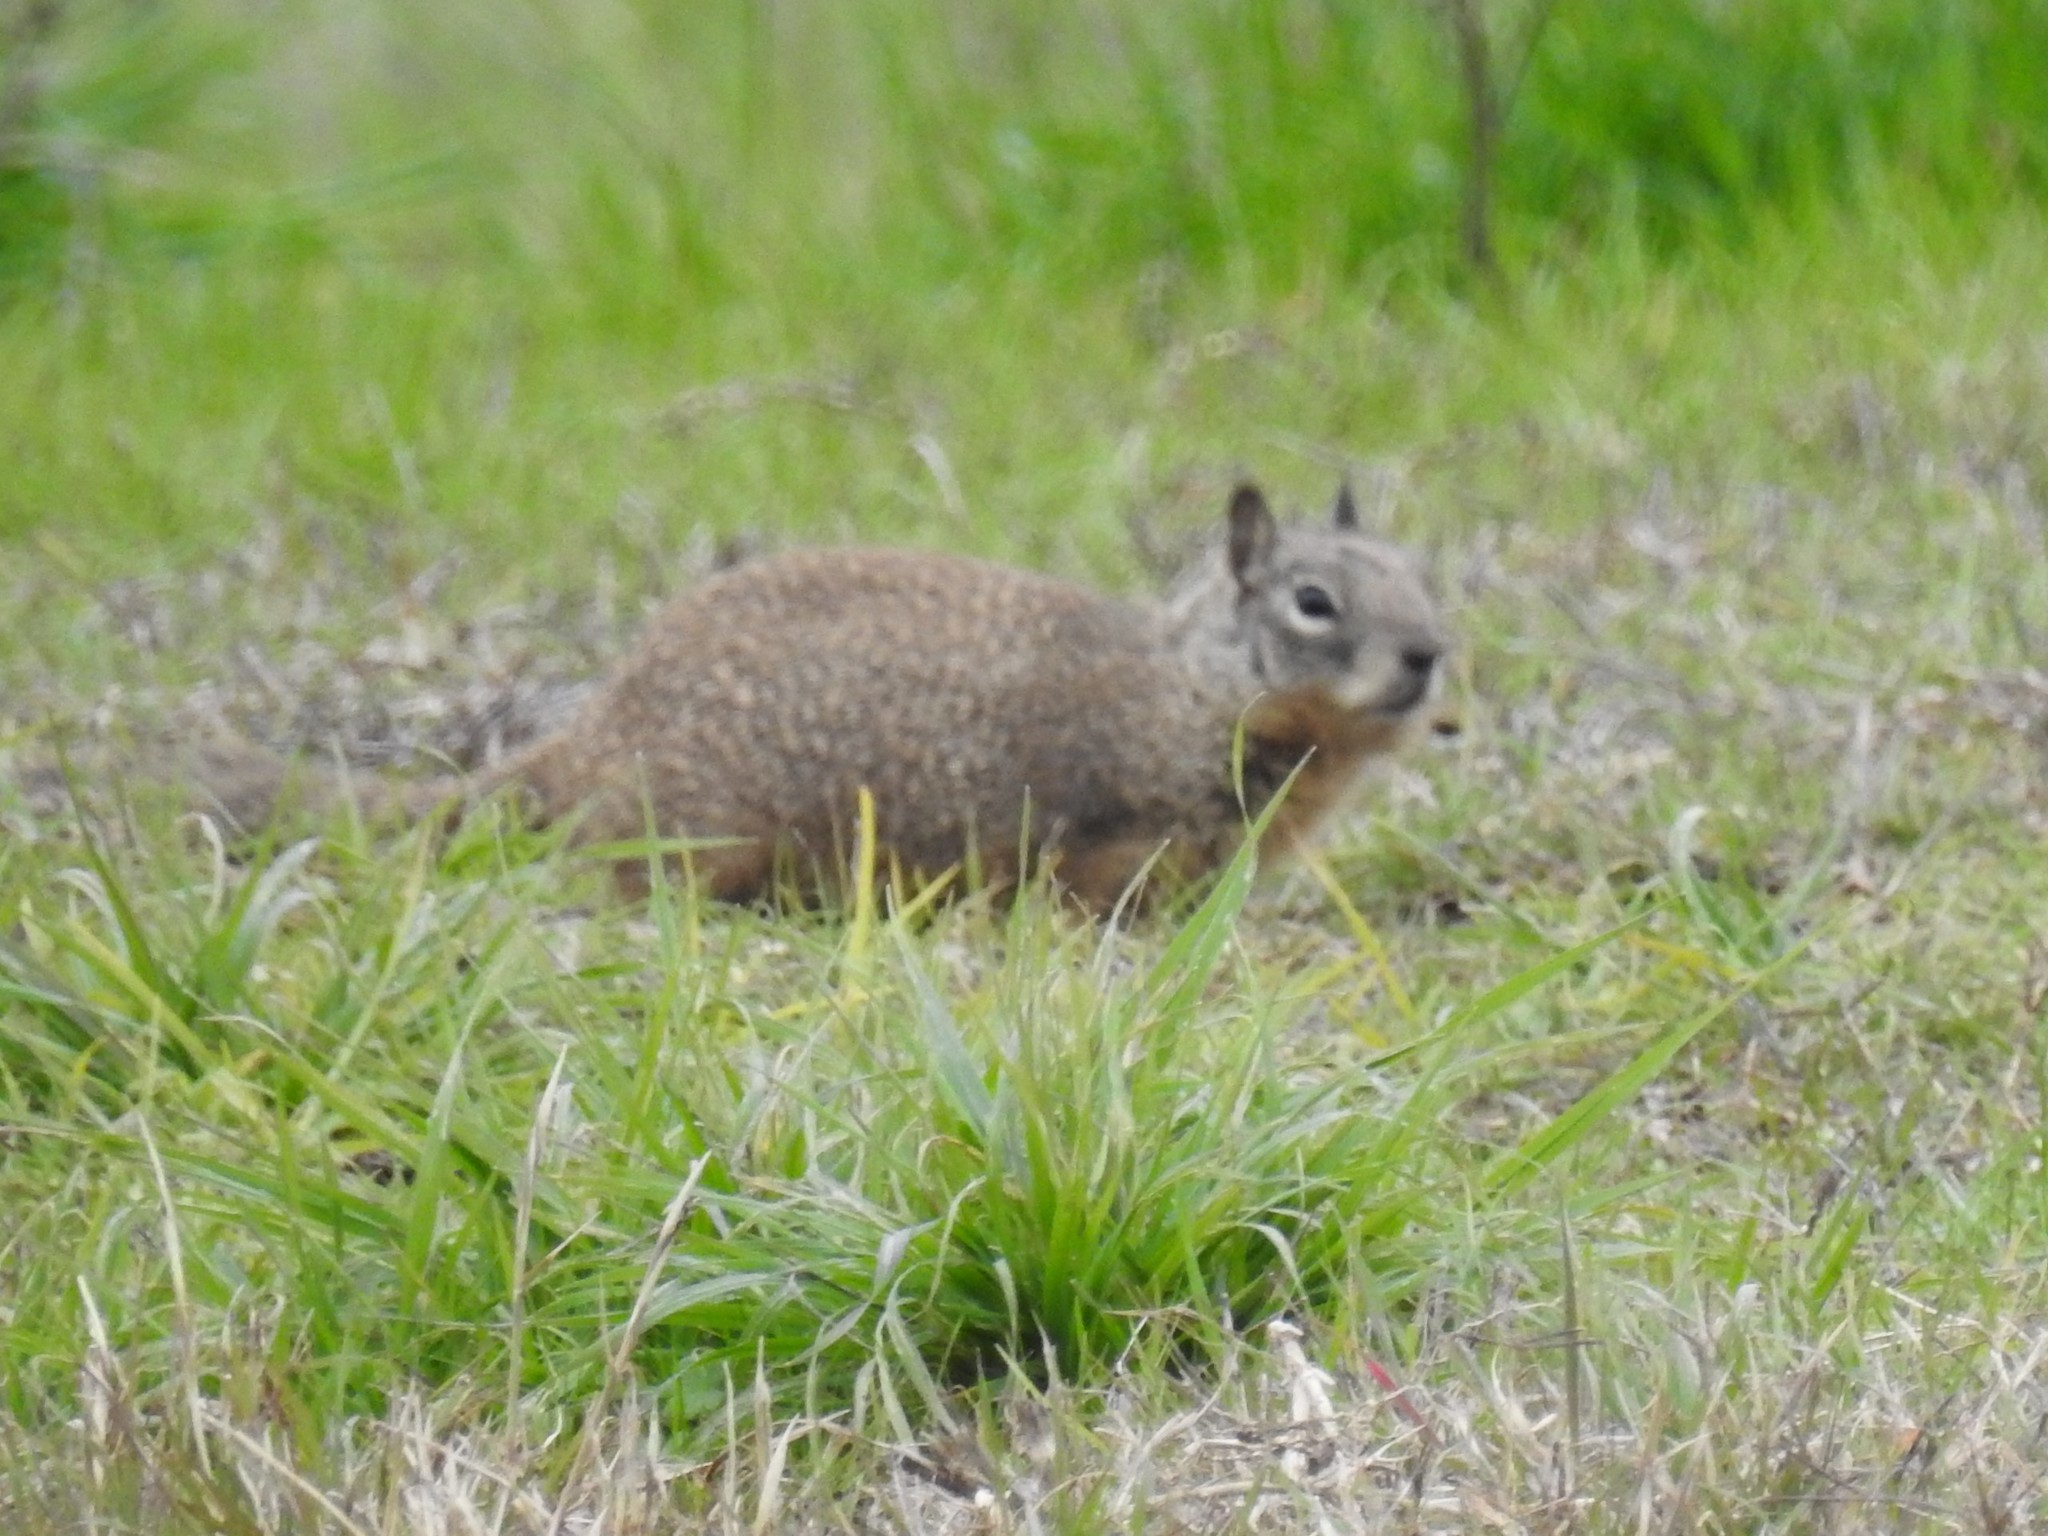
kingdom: Animalia
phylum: Chordata
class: Mammalia
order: Rodentia
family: Sciuridae
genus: Otospermophilus
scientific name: Otospermophilus beecheyi
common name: California ground squirrel
